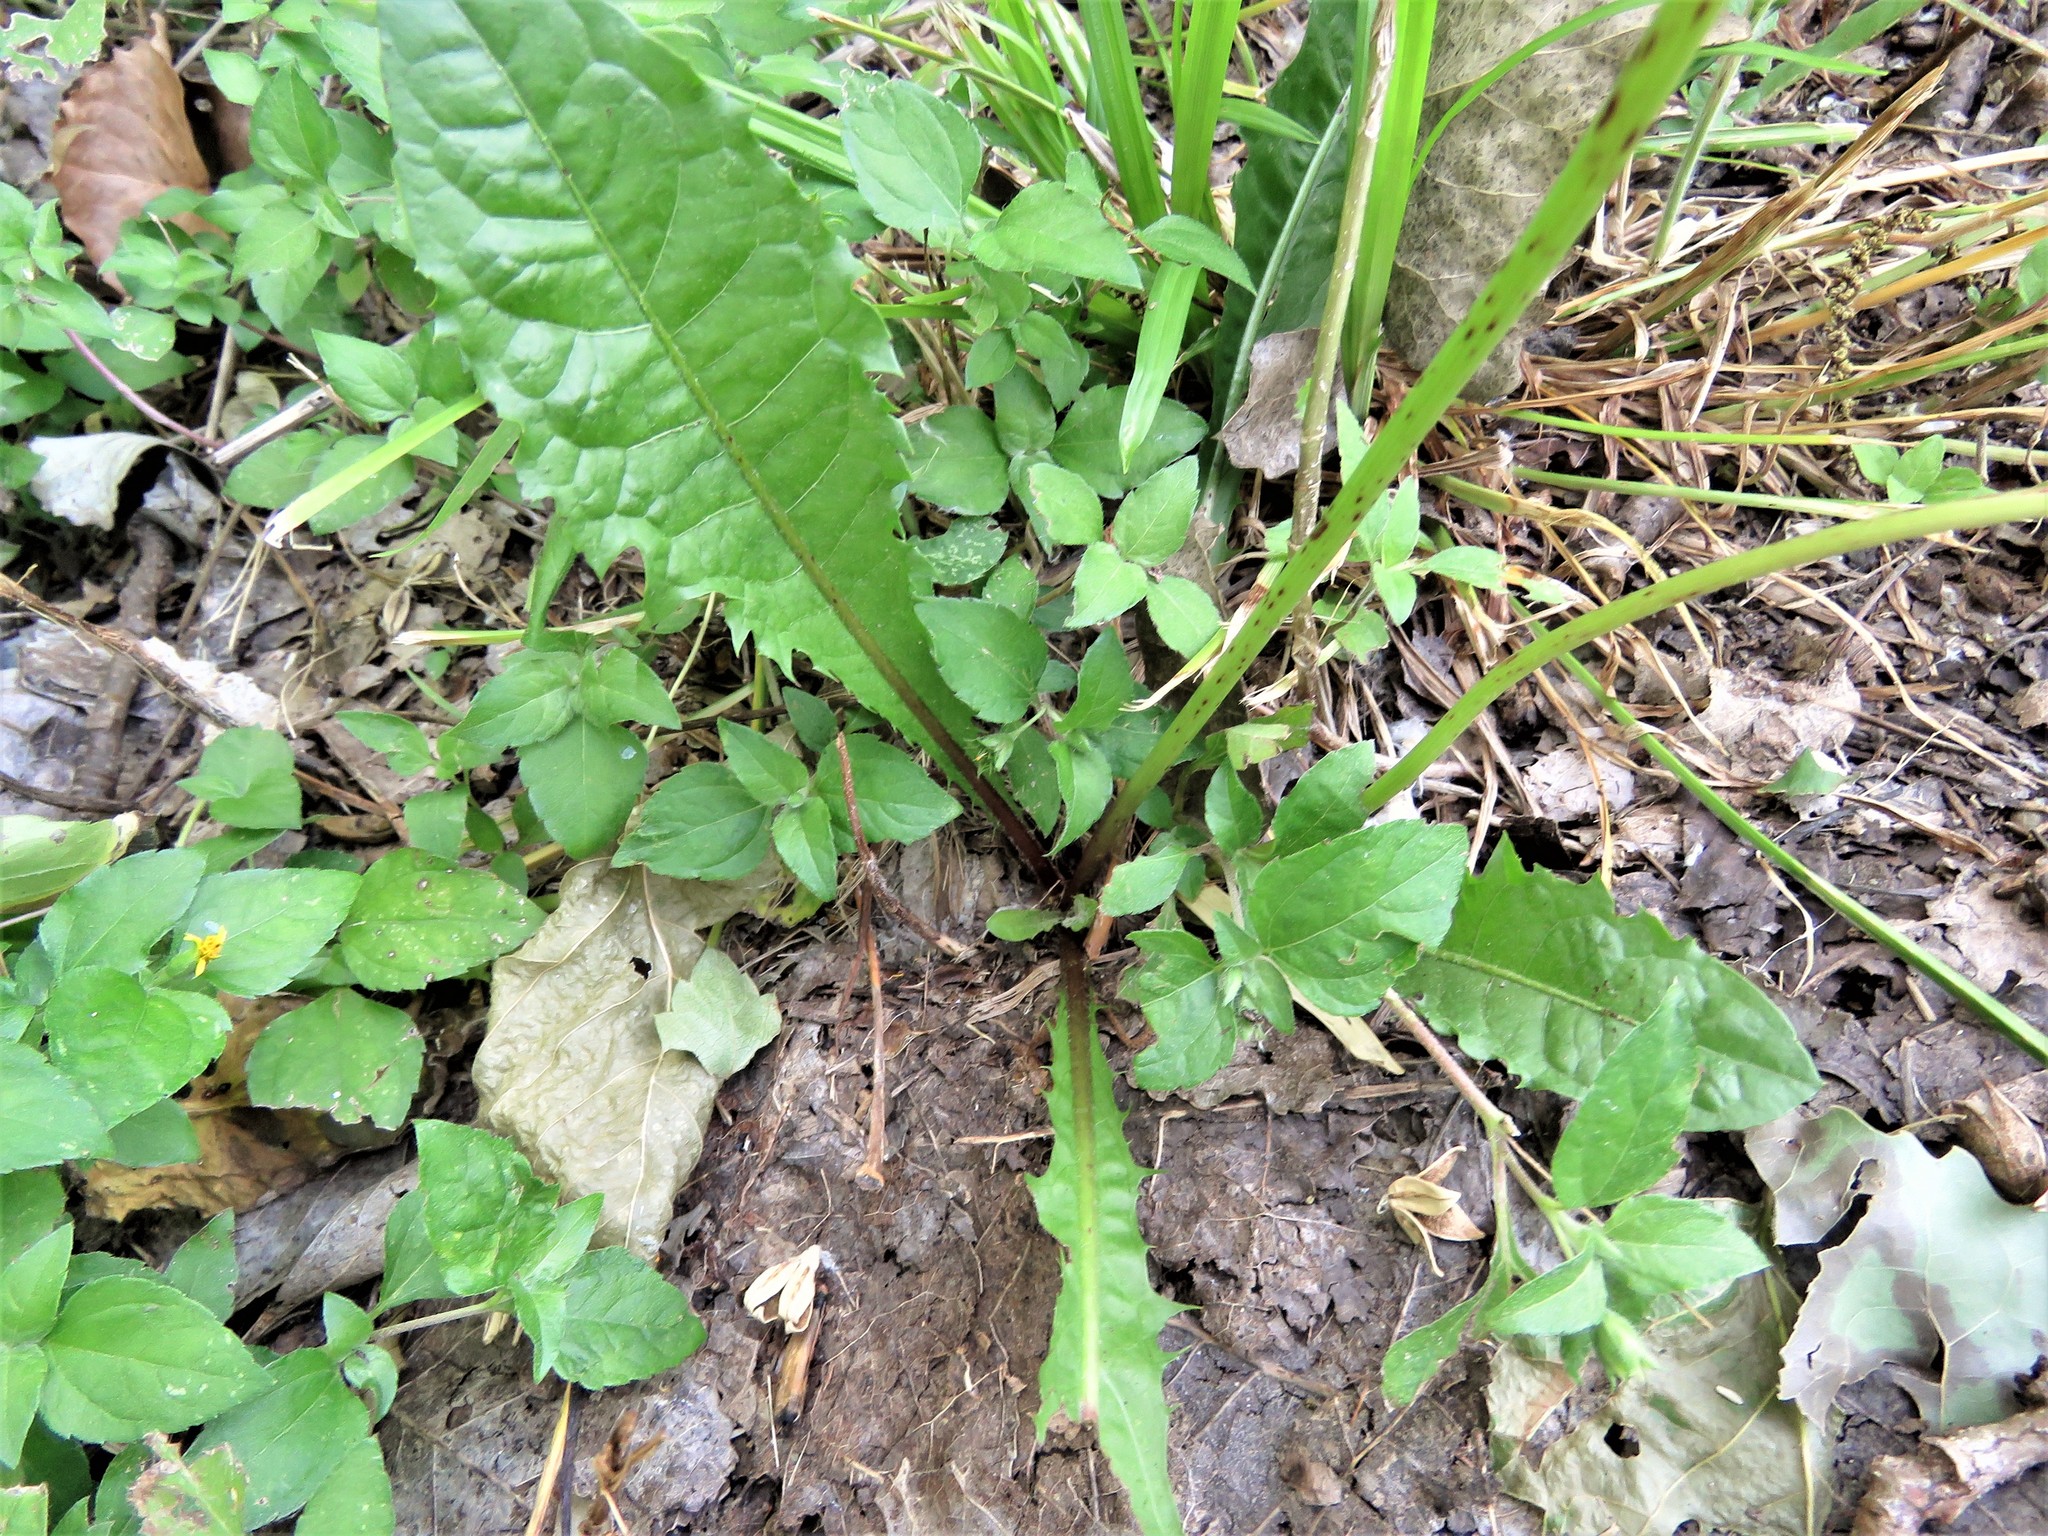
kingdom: Plantae
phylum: Tracheophyta
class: Magnoliopsida
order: Asterales
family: Asteraceae
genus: Taraxacum
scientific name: Taraxacum officinale
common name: Common dandelion
